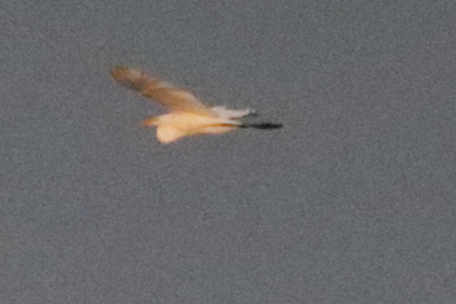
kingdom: Animalia
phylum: Chordata
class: Aves
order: Pelecaniformes
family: Ardeidae
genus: Ardea
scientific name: Ardea alba
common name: Great egret
